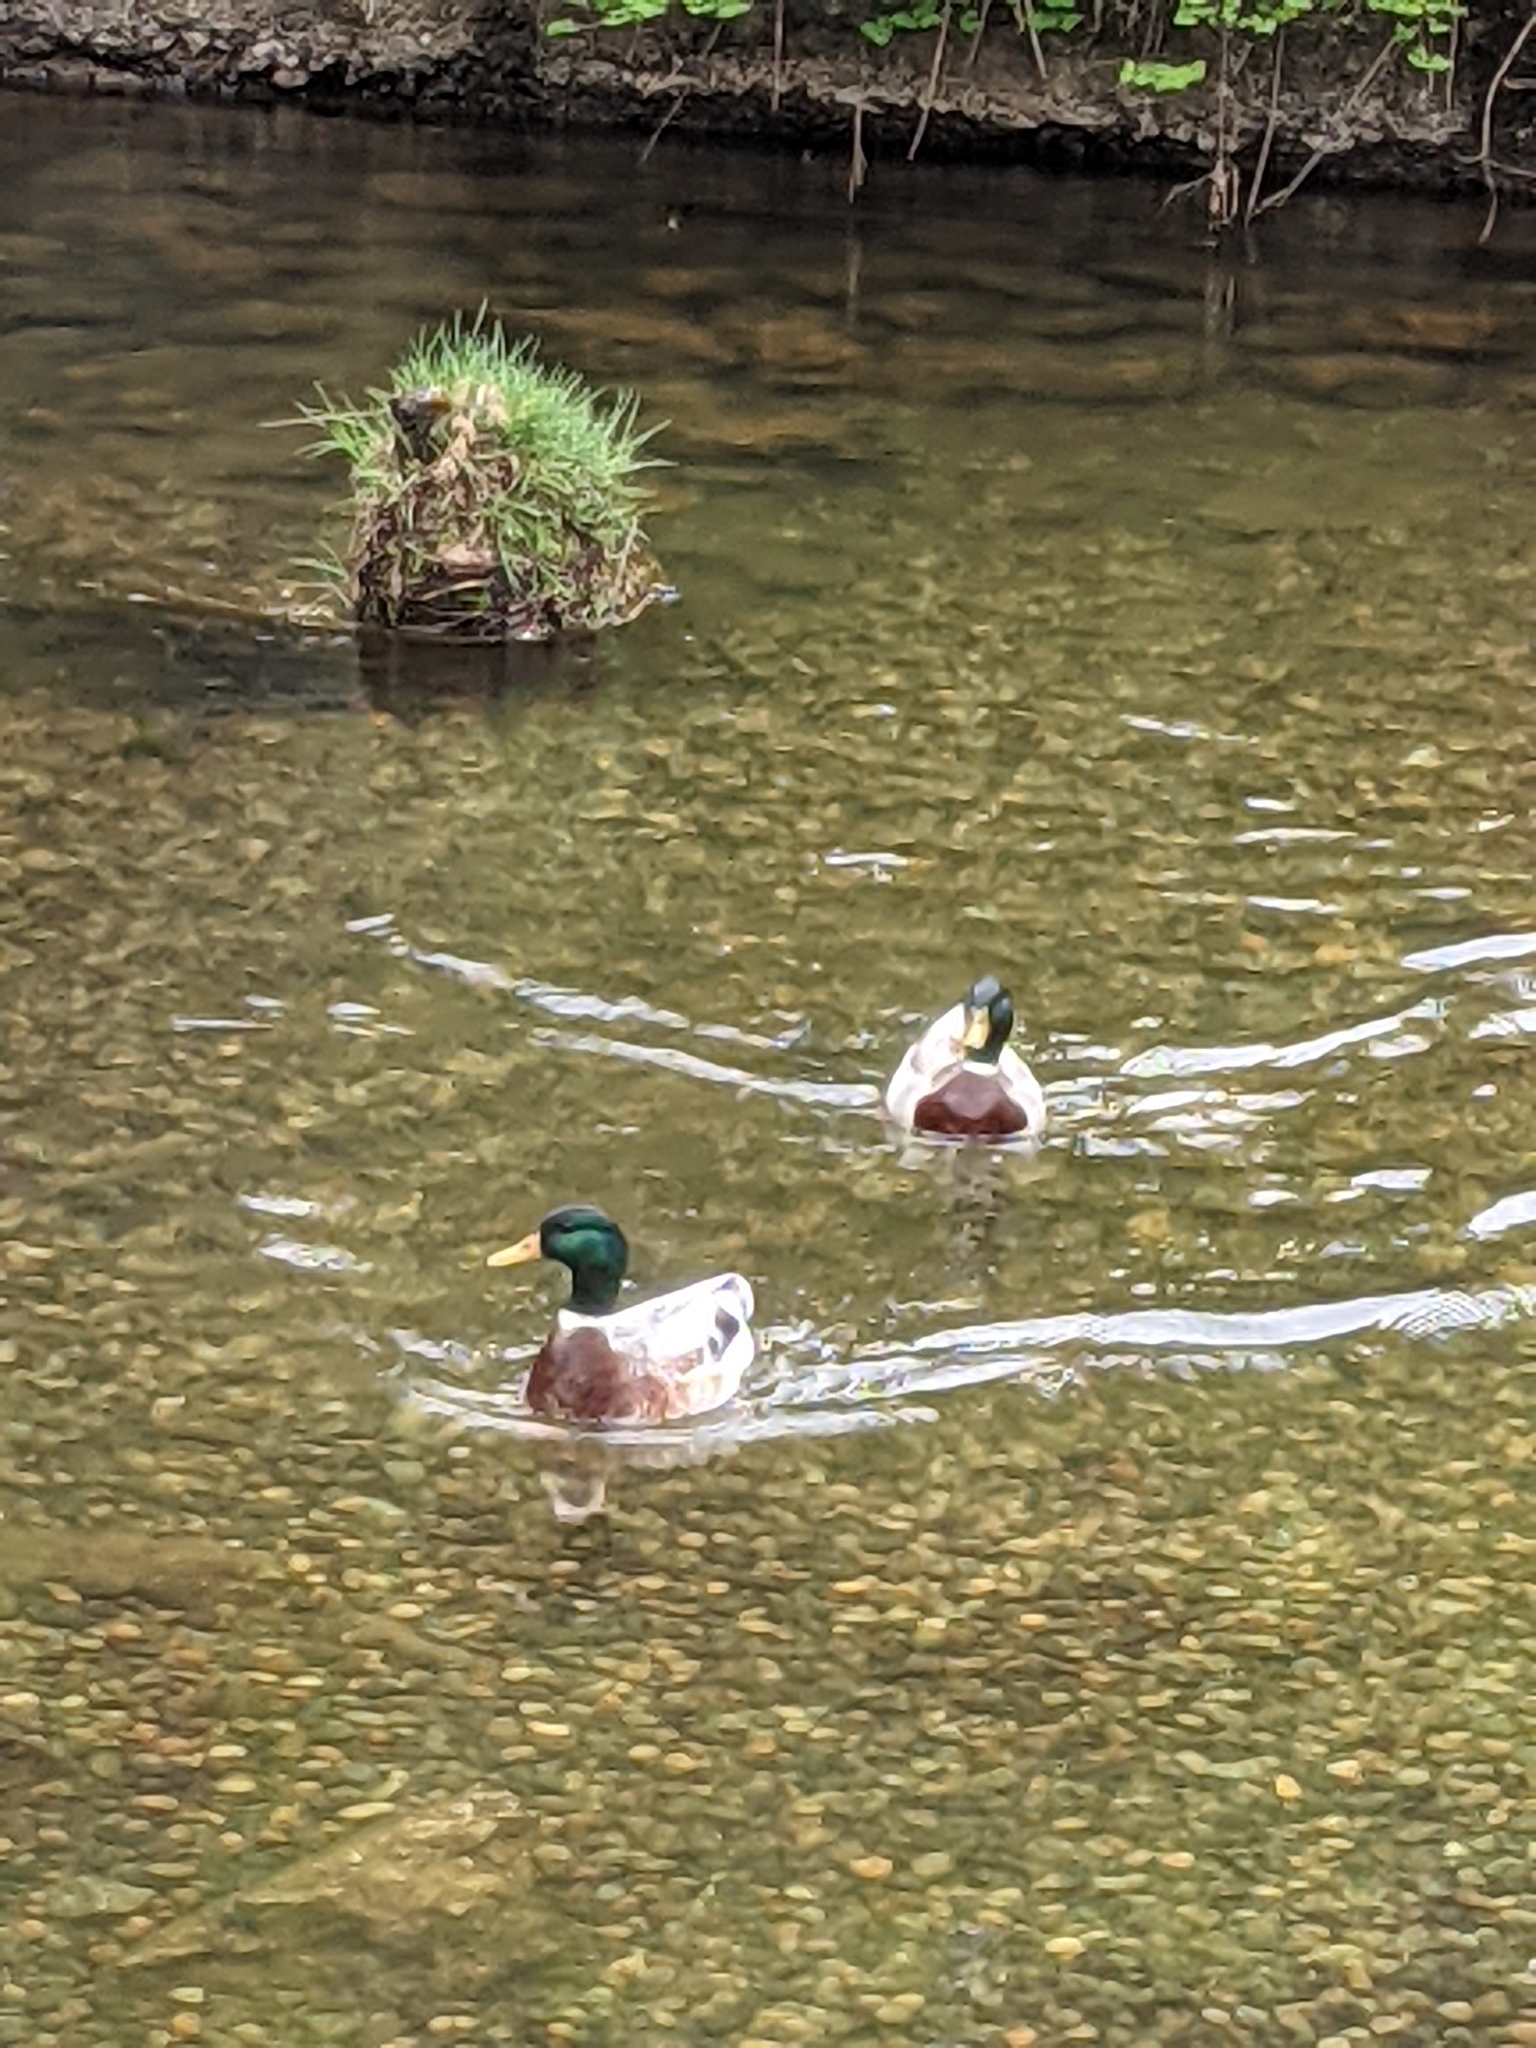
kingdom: Animalia
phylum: Chordata
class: Aves
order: Anseriformes
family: Anatidae
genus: Anas
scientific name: Anas platyrhynchos
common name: Mallard
